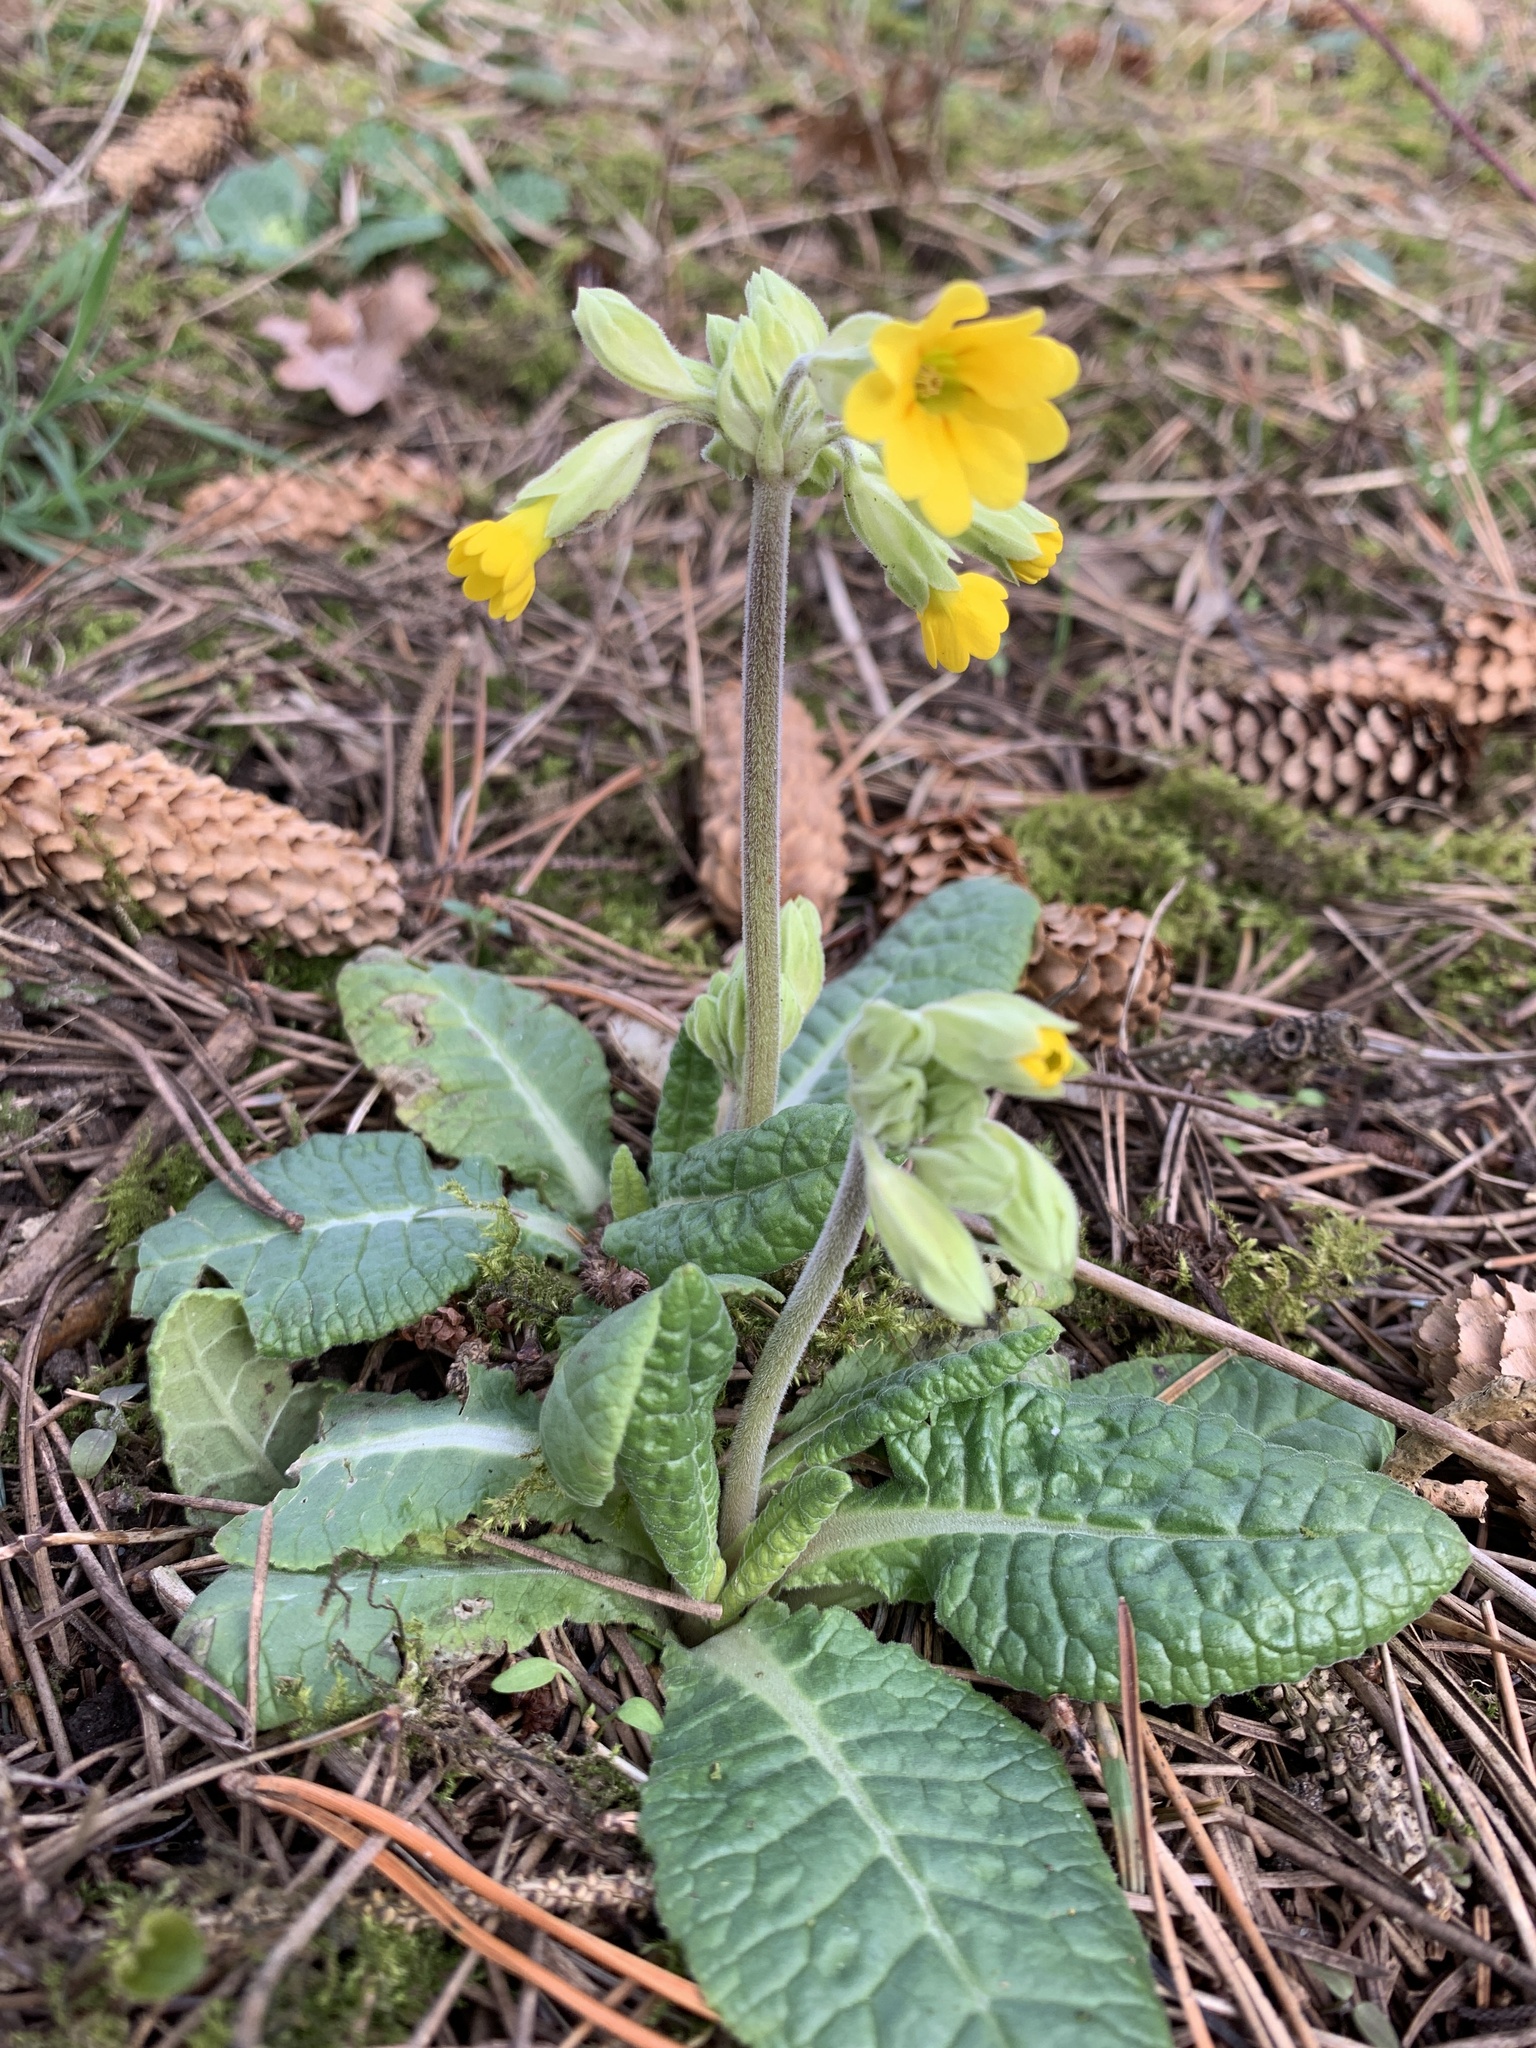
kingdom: Plantae
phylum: Tracheophyta
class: Magnoliopsida
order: Ericales
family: Primulaceae
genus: Primula
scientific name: Primula veris
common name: Cowslip
